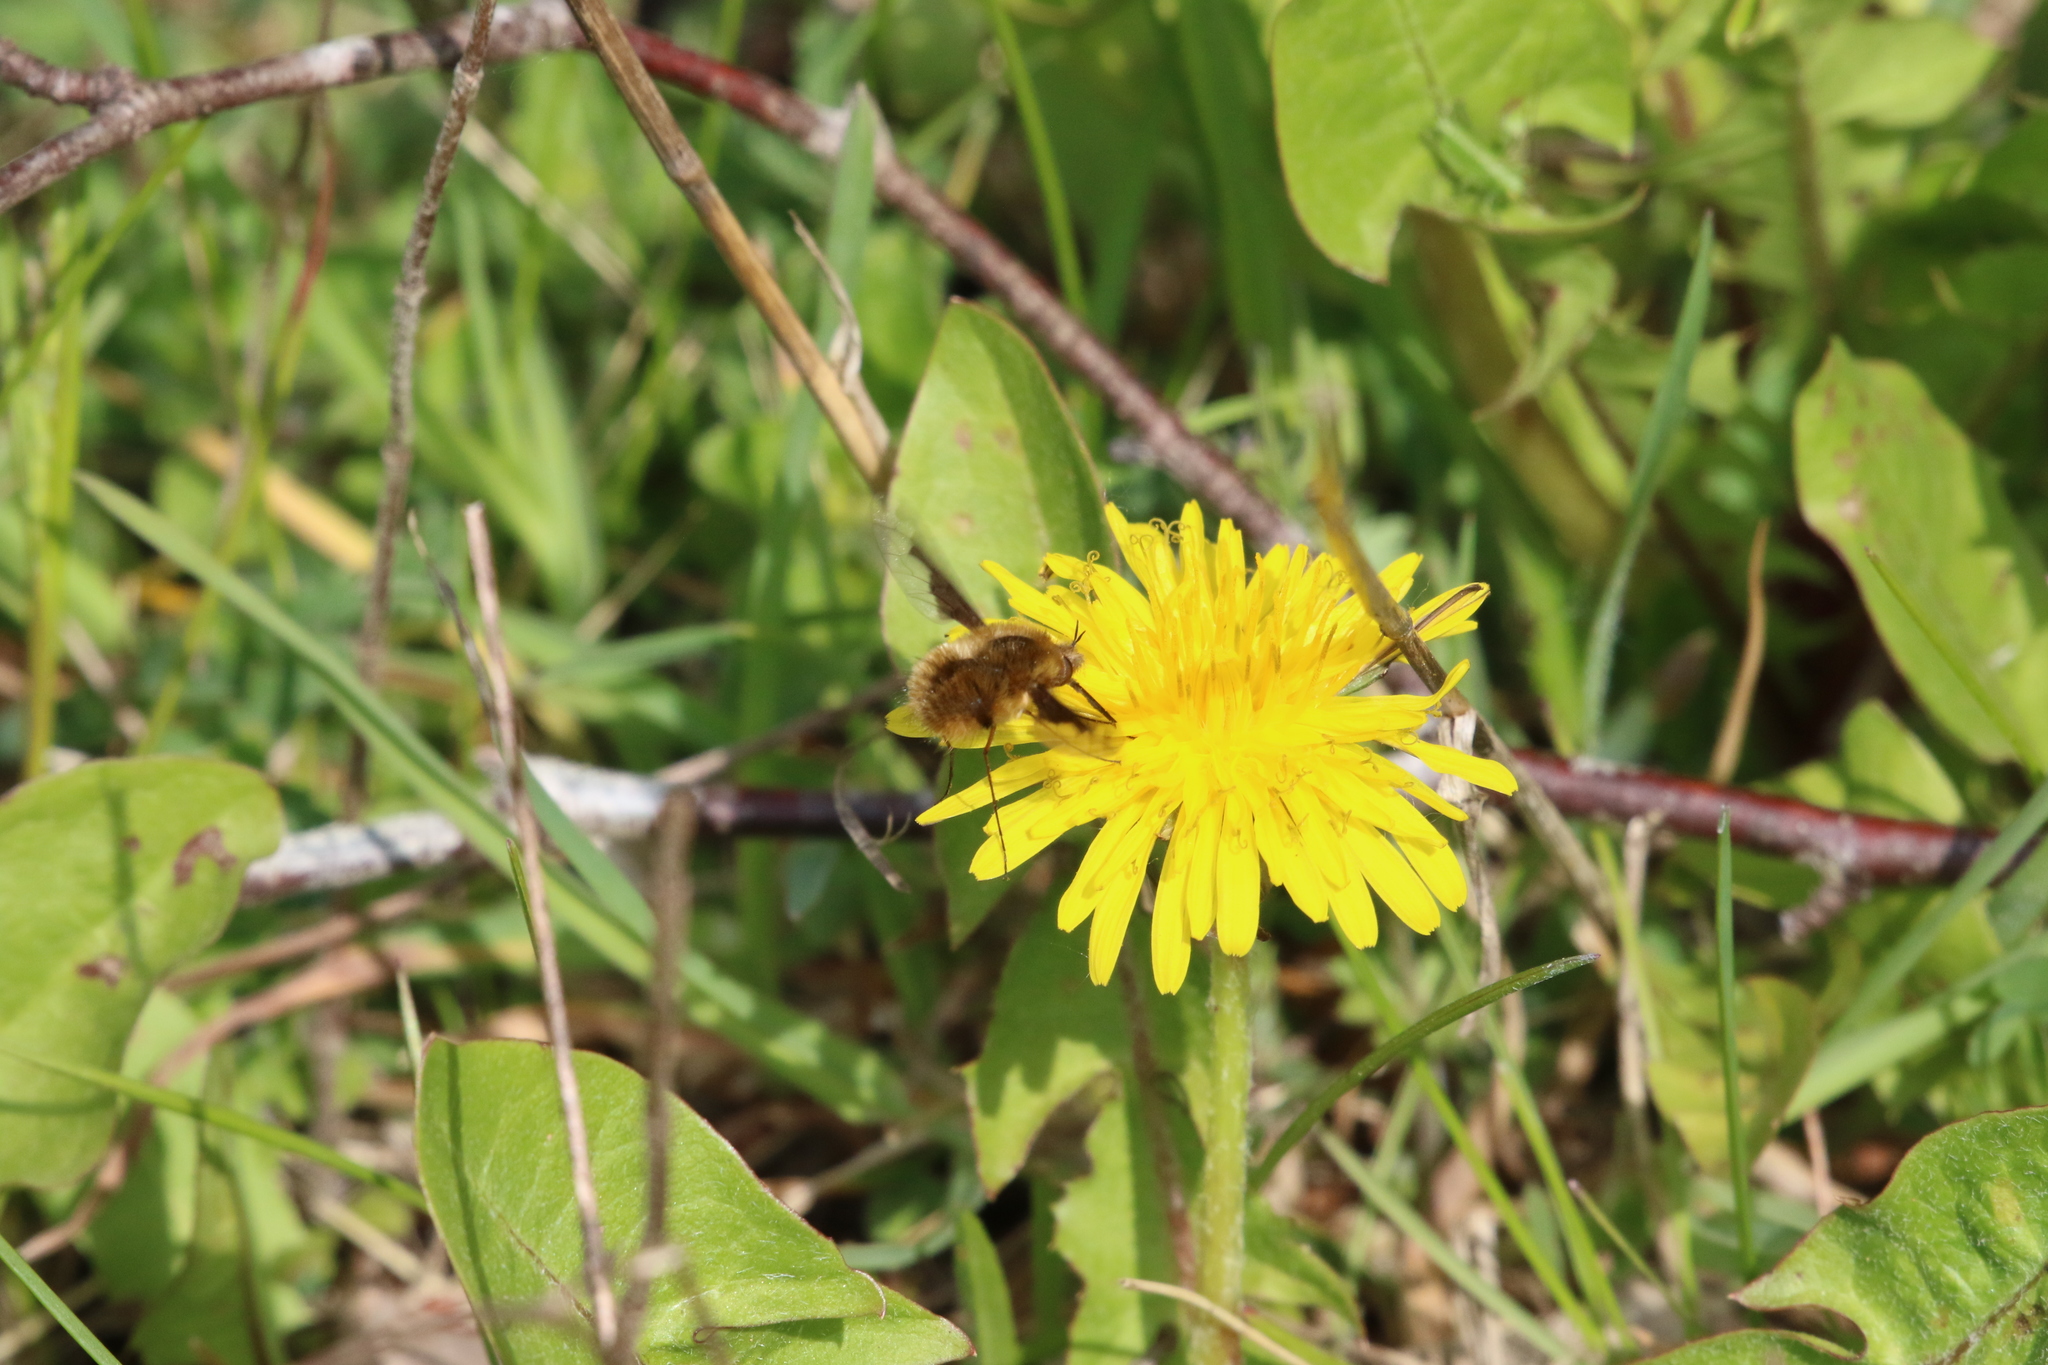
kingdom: Animalia
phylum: Arthropoda
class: Insecta
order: Diptera
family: Bombyliidae
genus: Bombylius
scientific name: Bombylius major
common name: Bee fly
